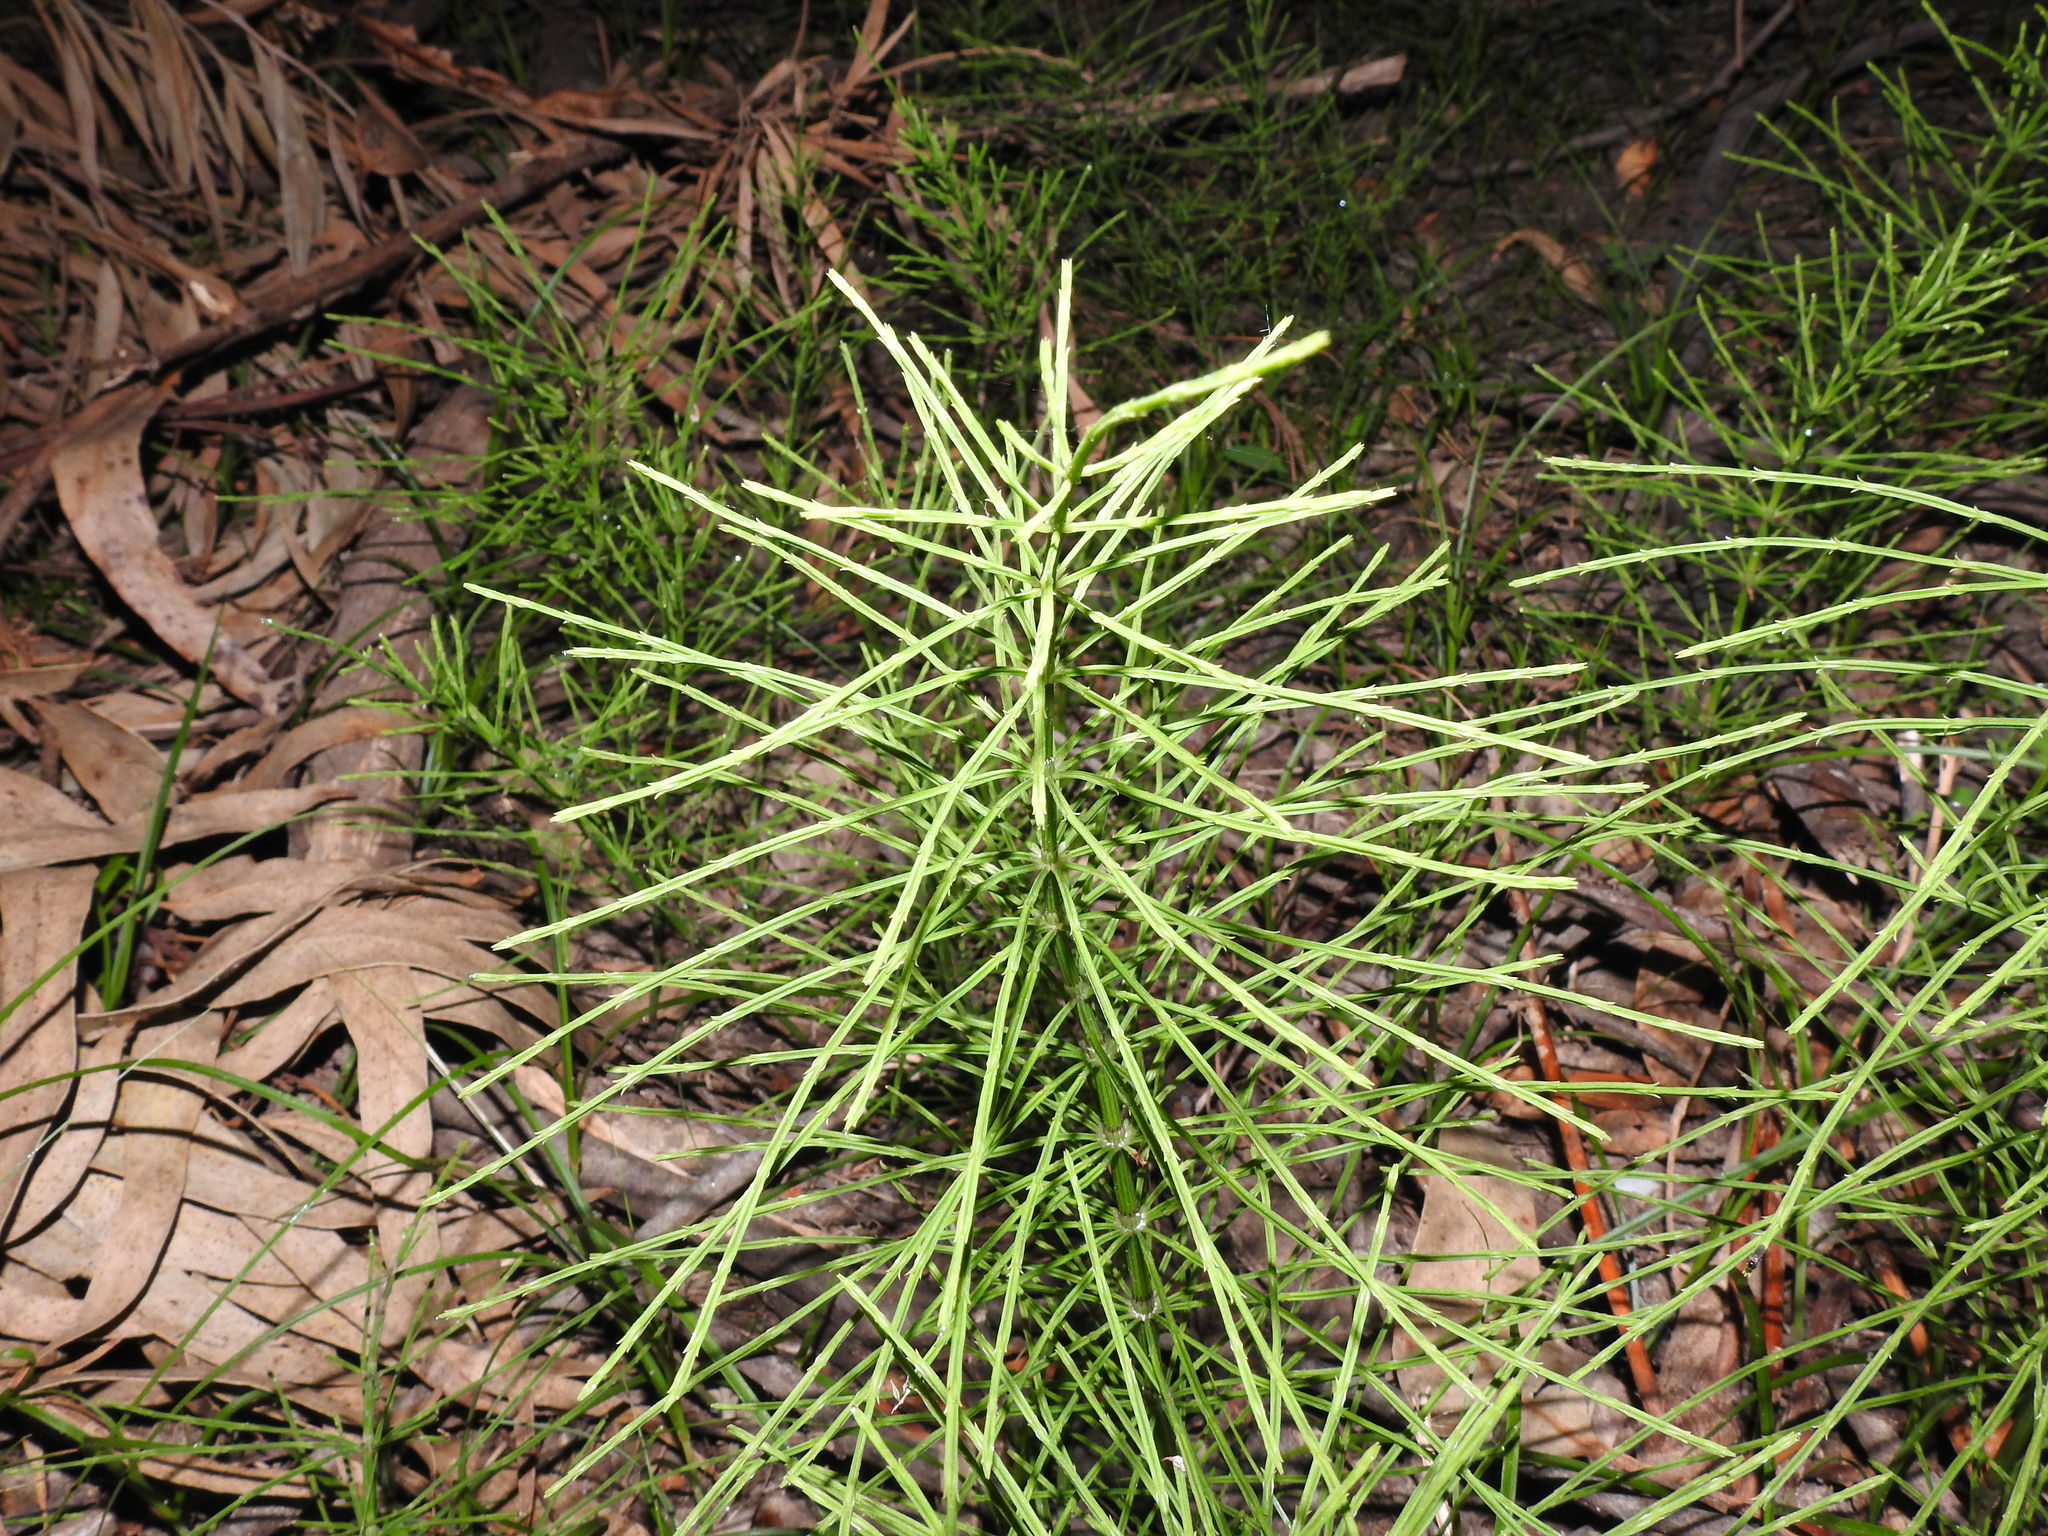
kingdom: Plantae
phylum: Tracheophyta
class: Polypodiopsida
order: Equisetales
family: Equisetaceae
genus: Equisetum
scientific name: Equisetum arvense
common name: Field horsetail
